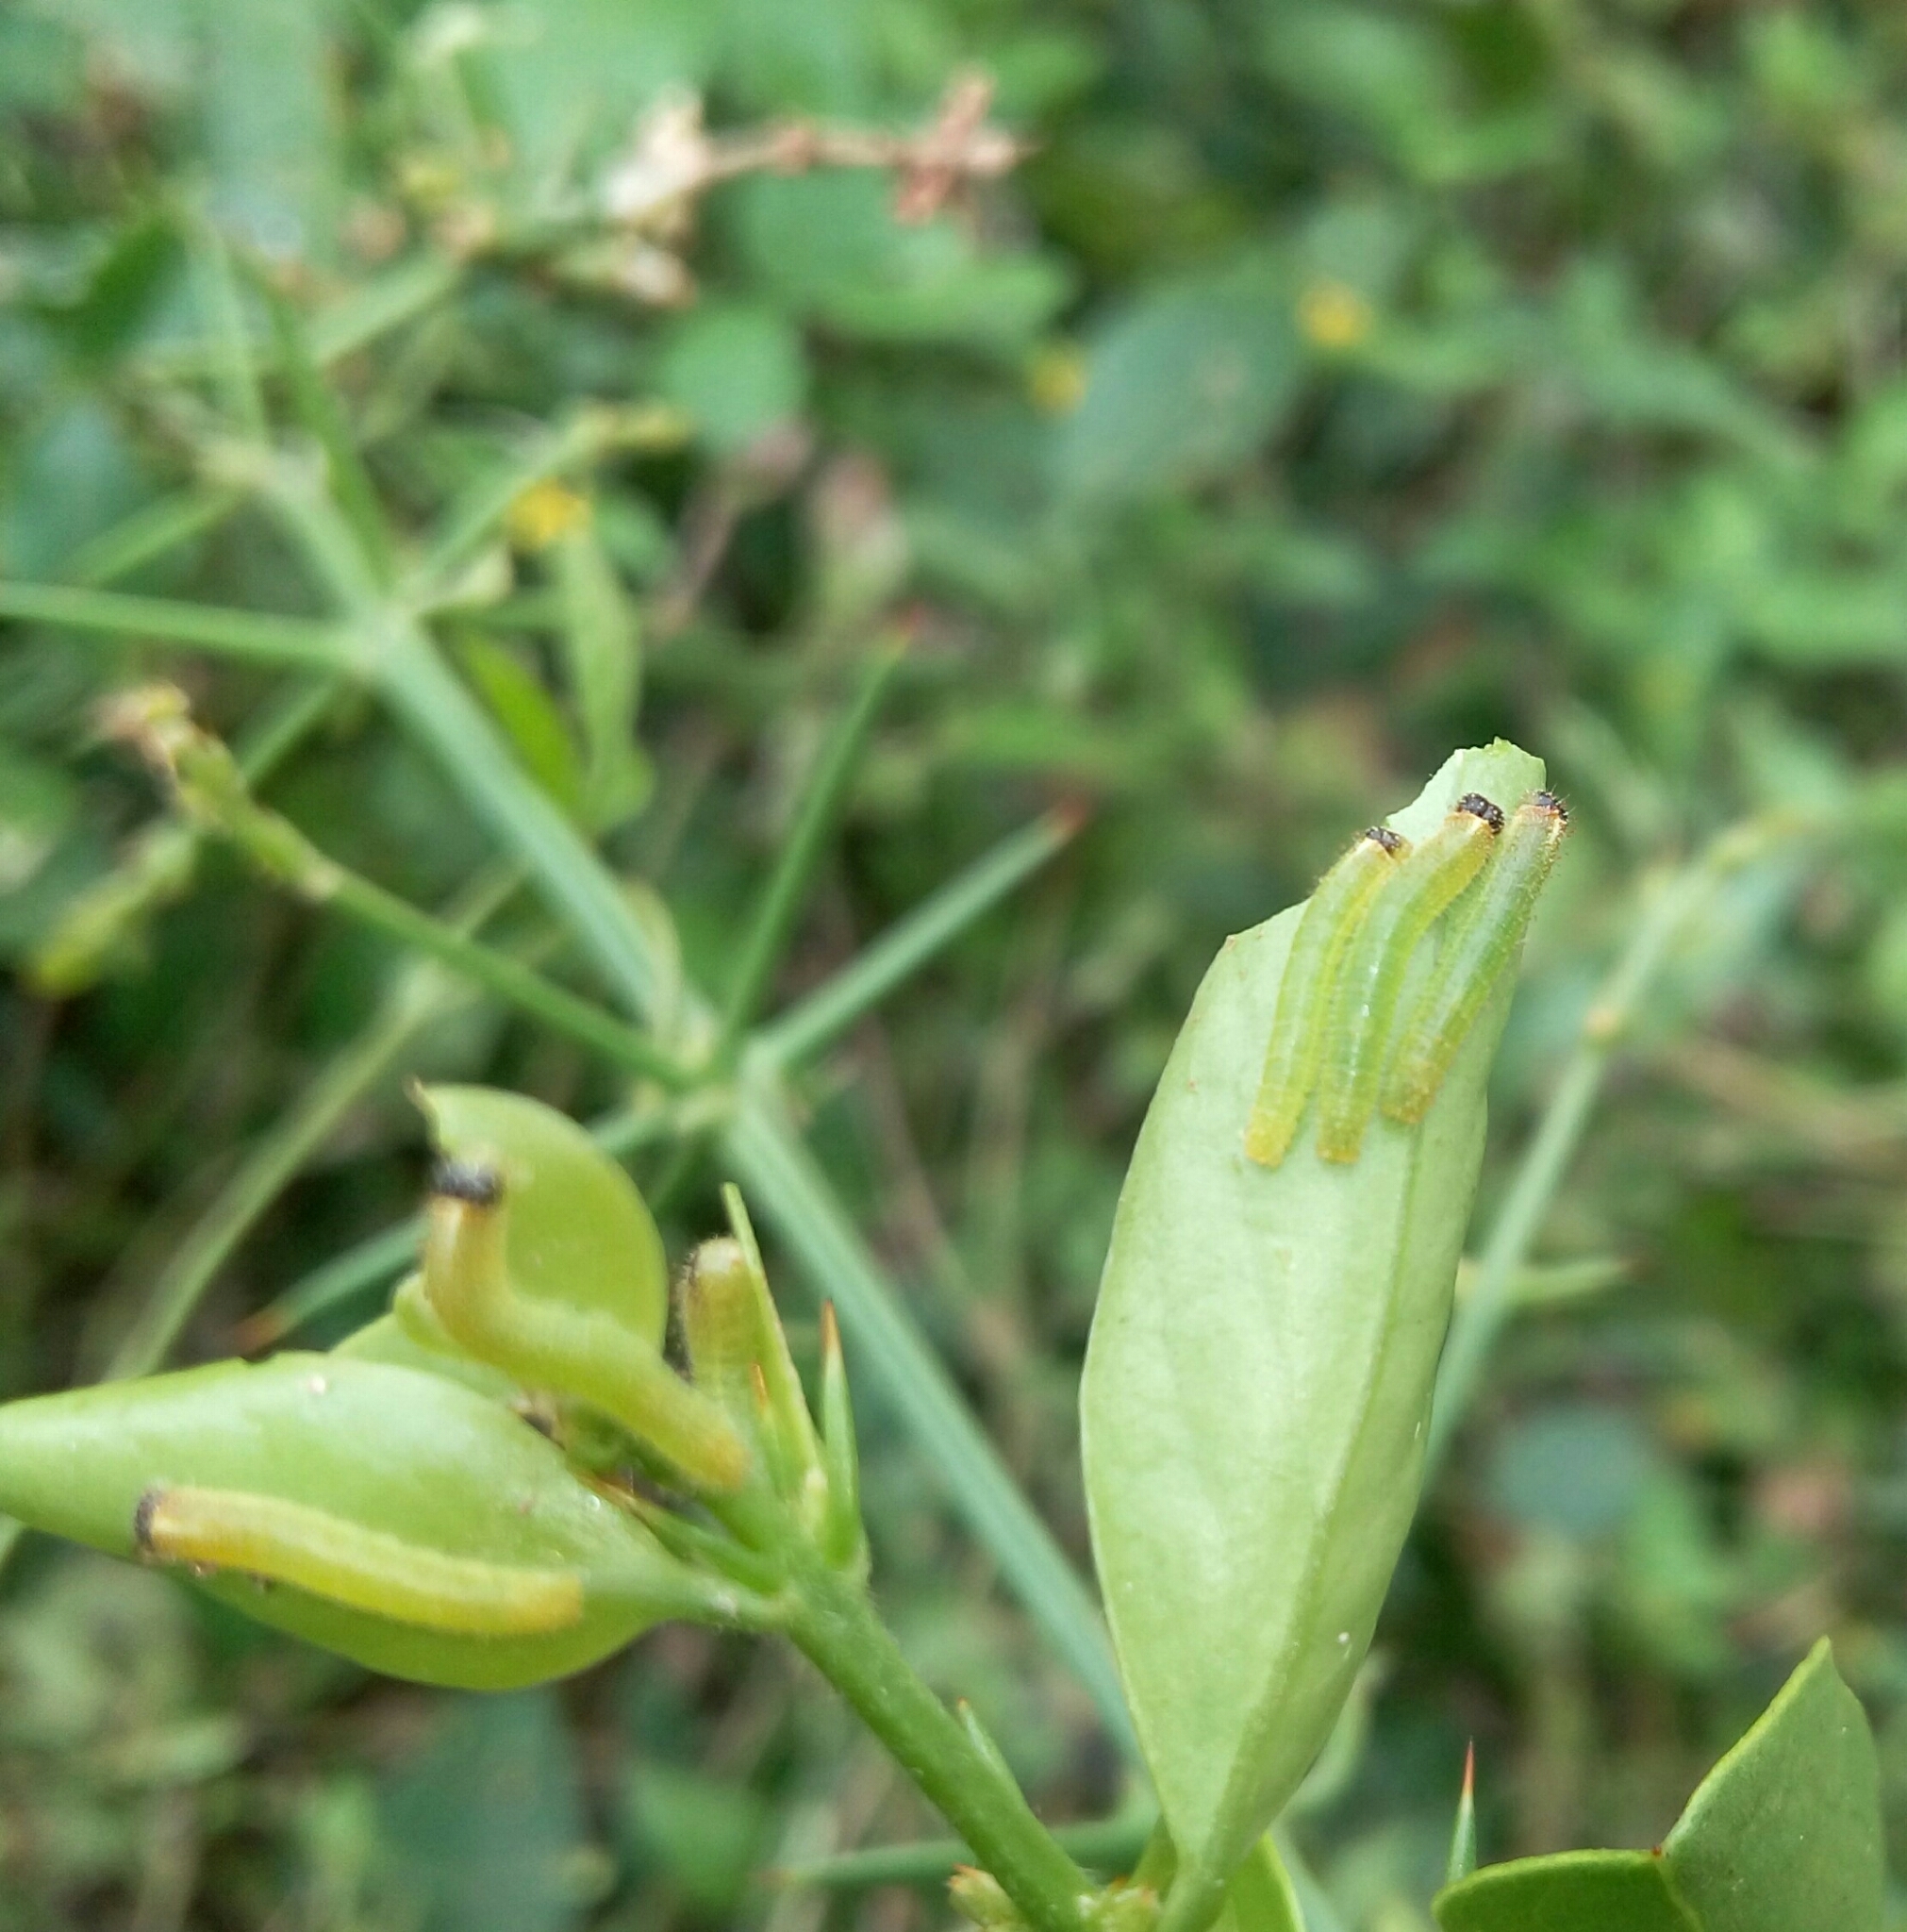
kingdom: Animalia
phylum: Arthropoda
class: Insecta
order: Lepidoptera
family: Pieridae
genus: Colotis
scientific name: Colotis amata
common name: Small salmon arab
